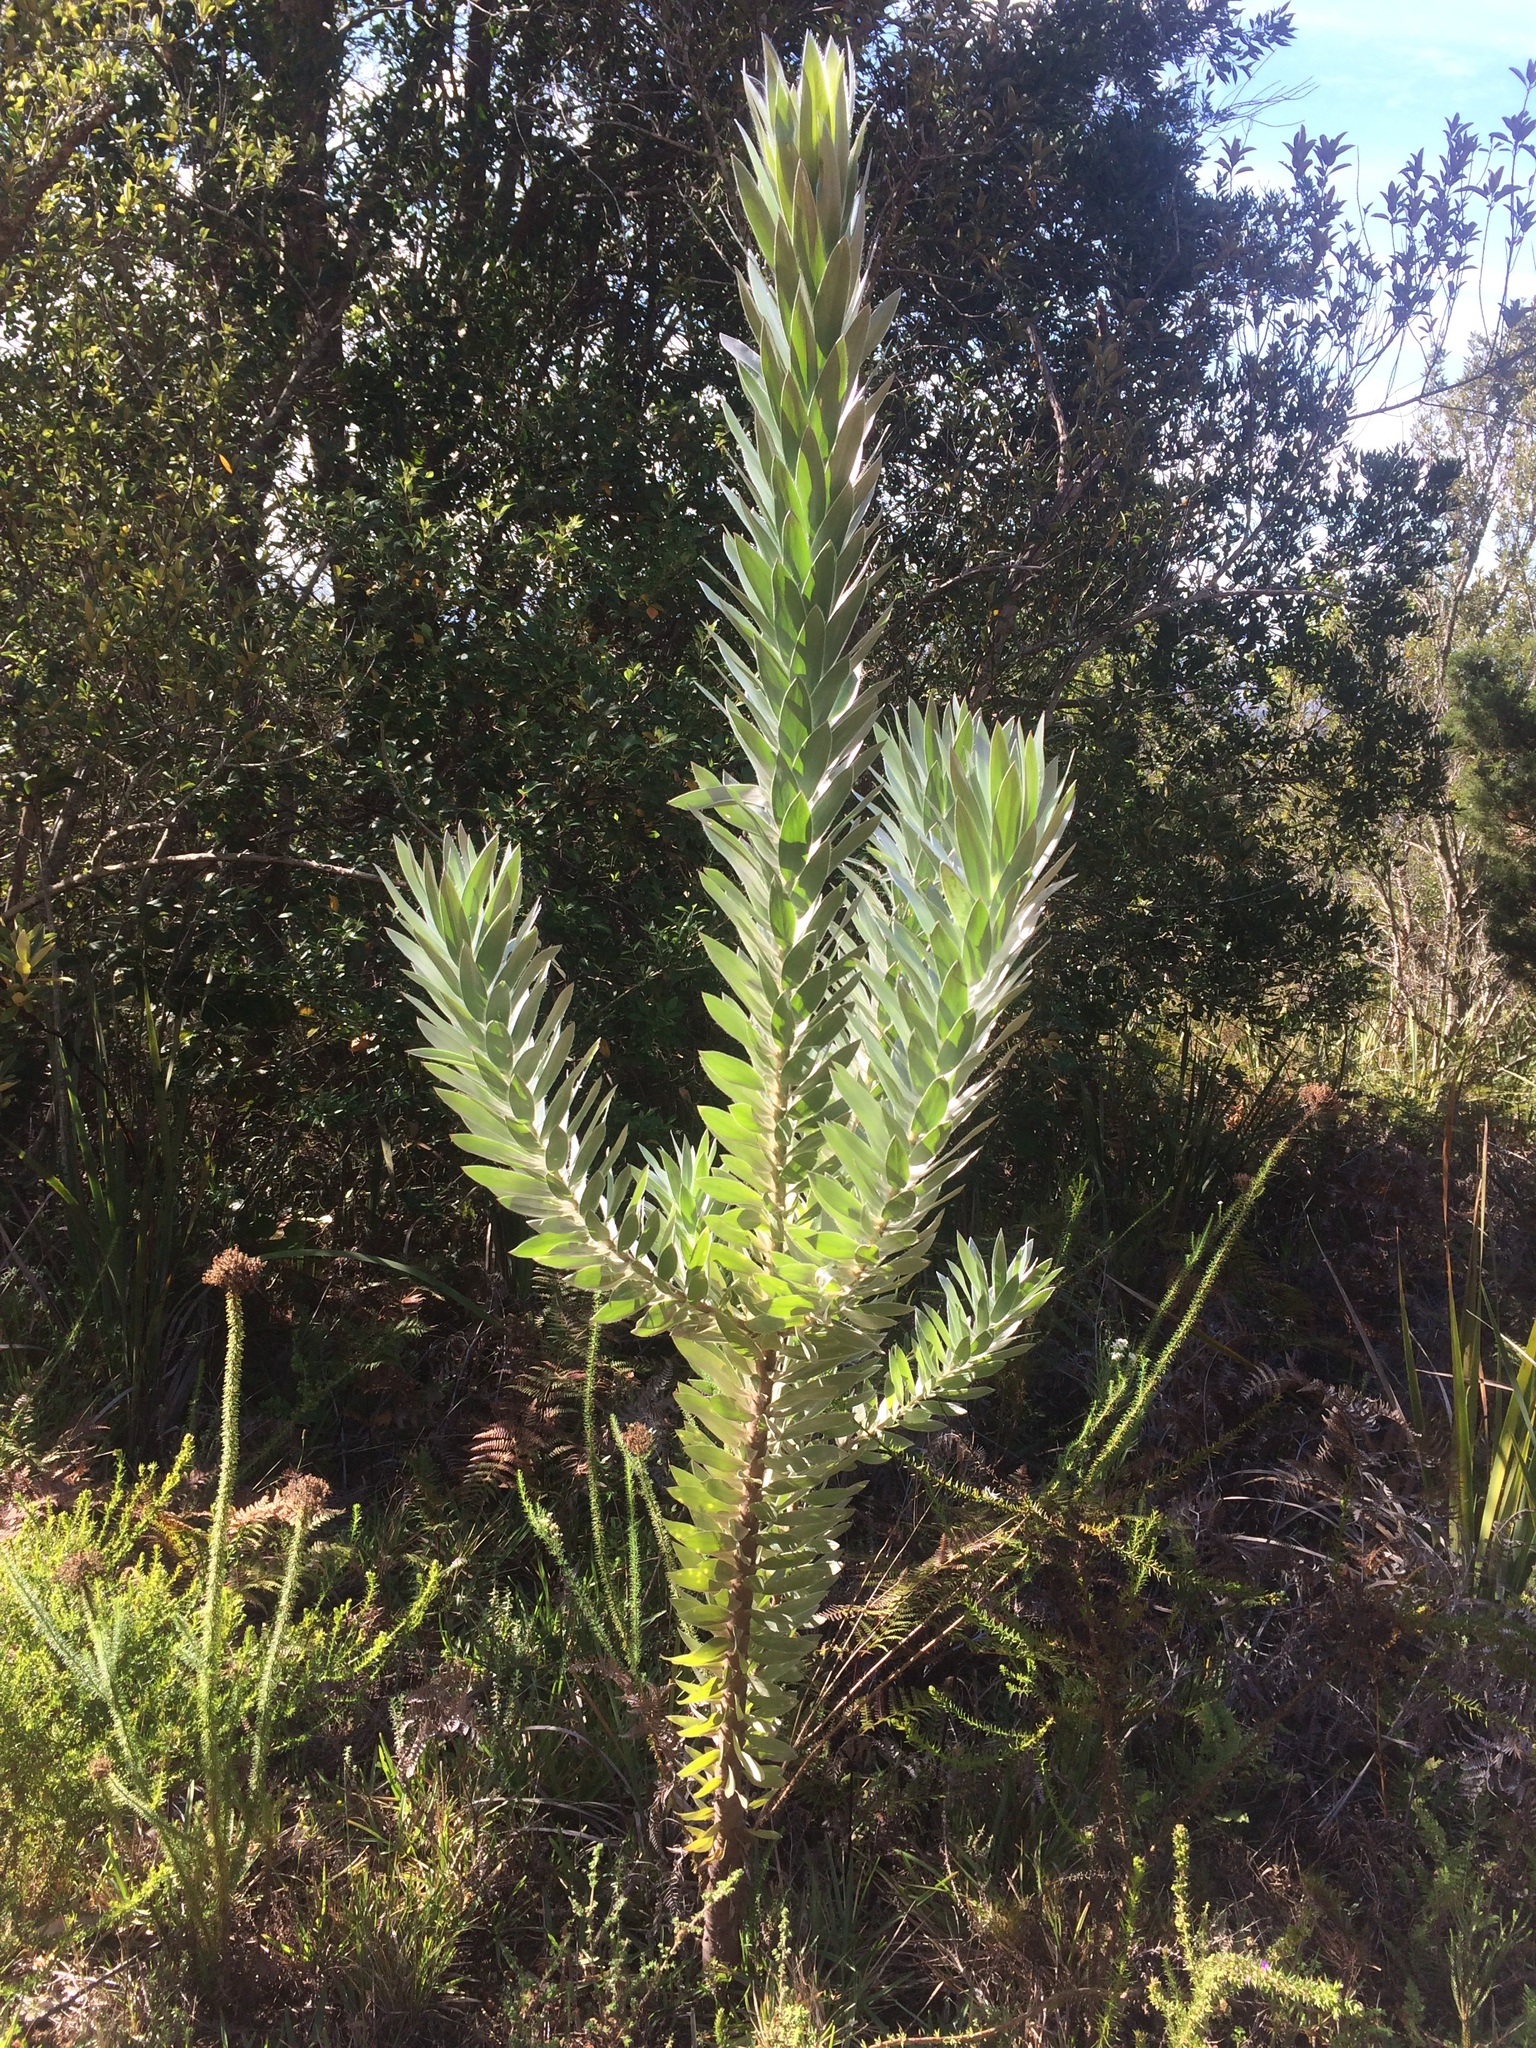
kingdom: Plantae
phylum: Tracheophyta
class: Magnoliopsida
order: Proteales
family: Proteaceae
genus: Leucadendron
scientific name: Leucadendron argenteum
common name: Cape silver tree
